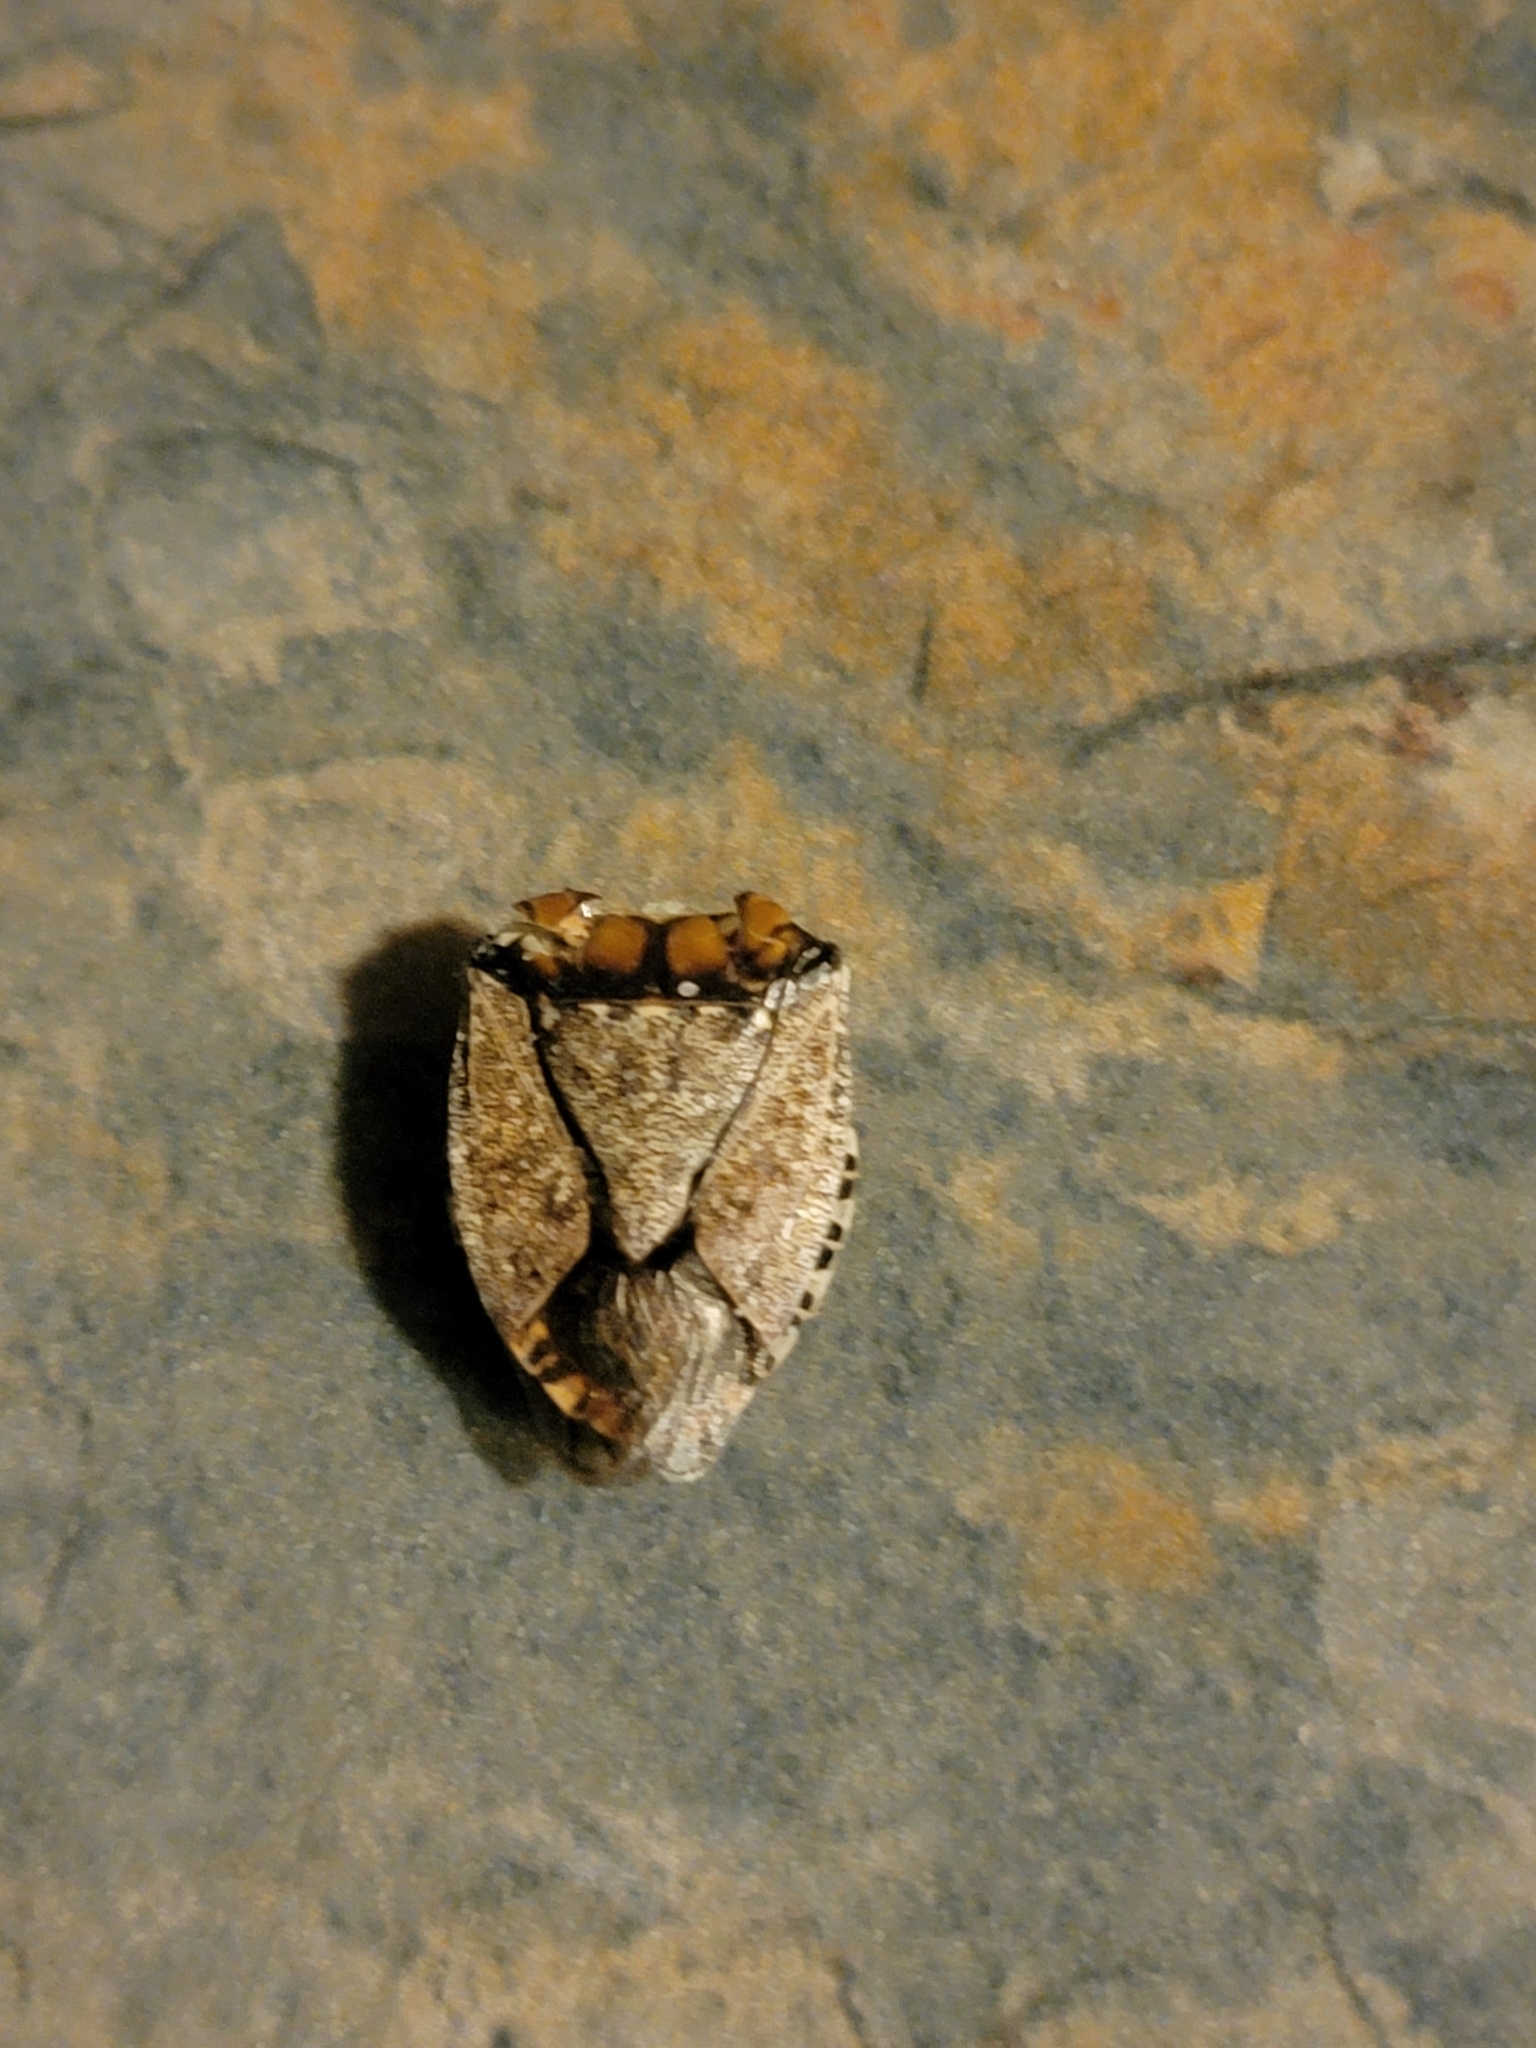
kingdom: Animalia
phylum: Arthropoda
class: Insecta
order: Hemiptera
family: Pentatomidae
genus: Halyomorpha
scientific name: Halyomorpha halys
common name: Brown marmorated stink bug
